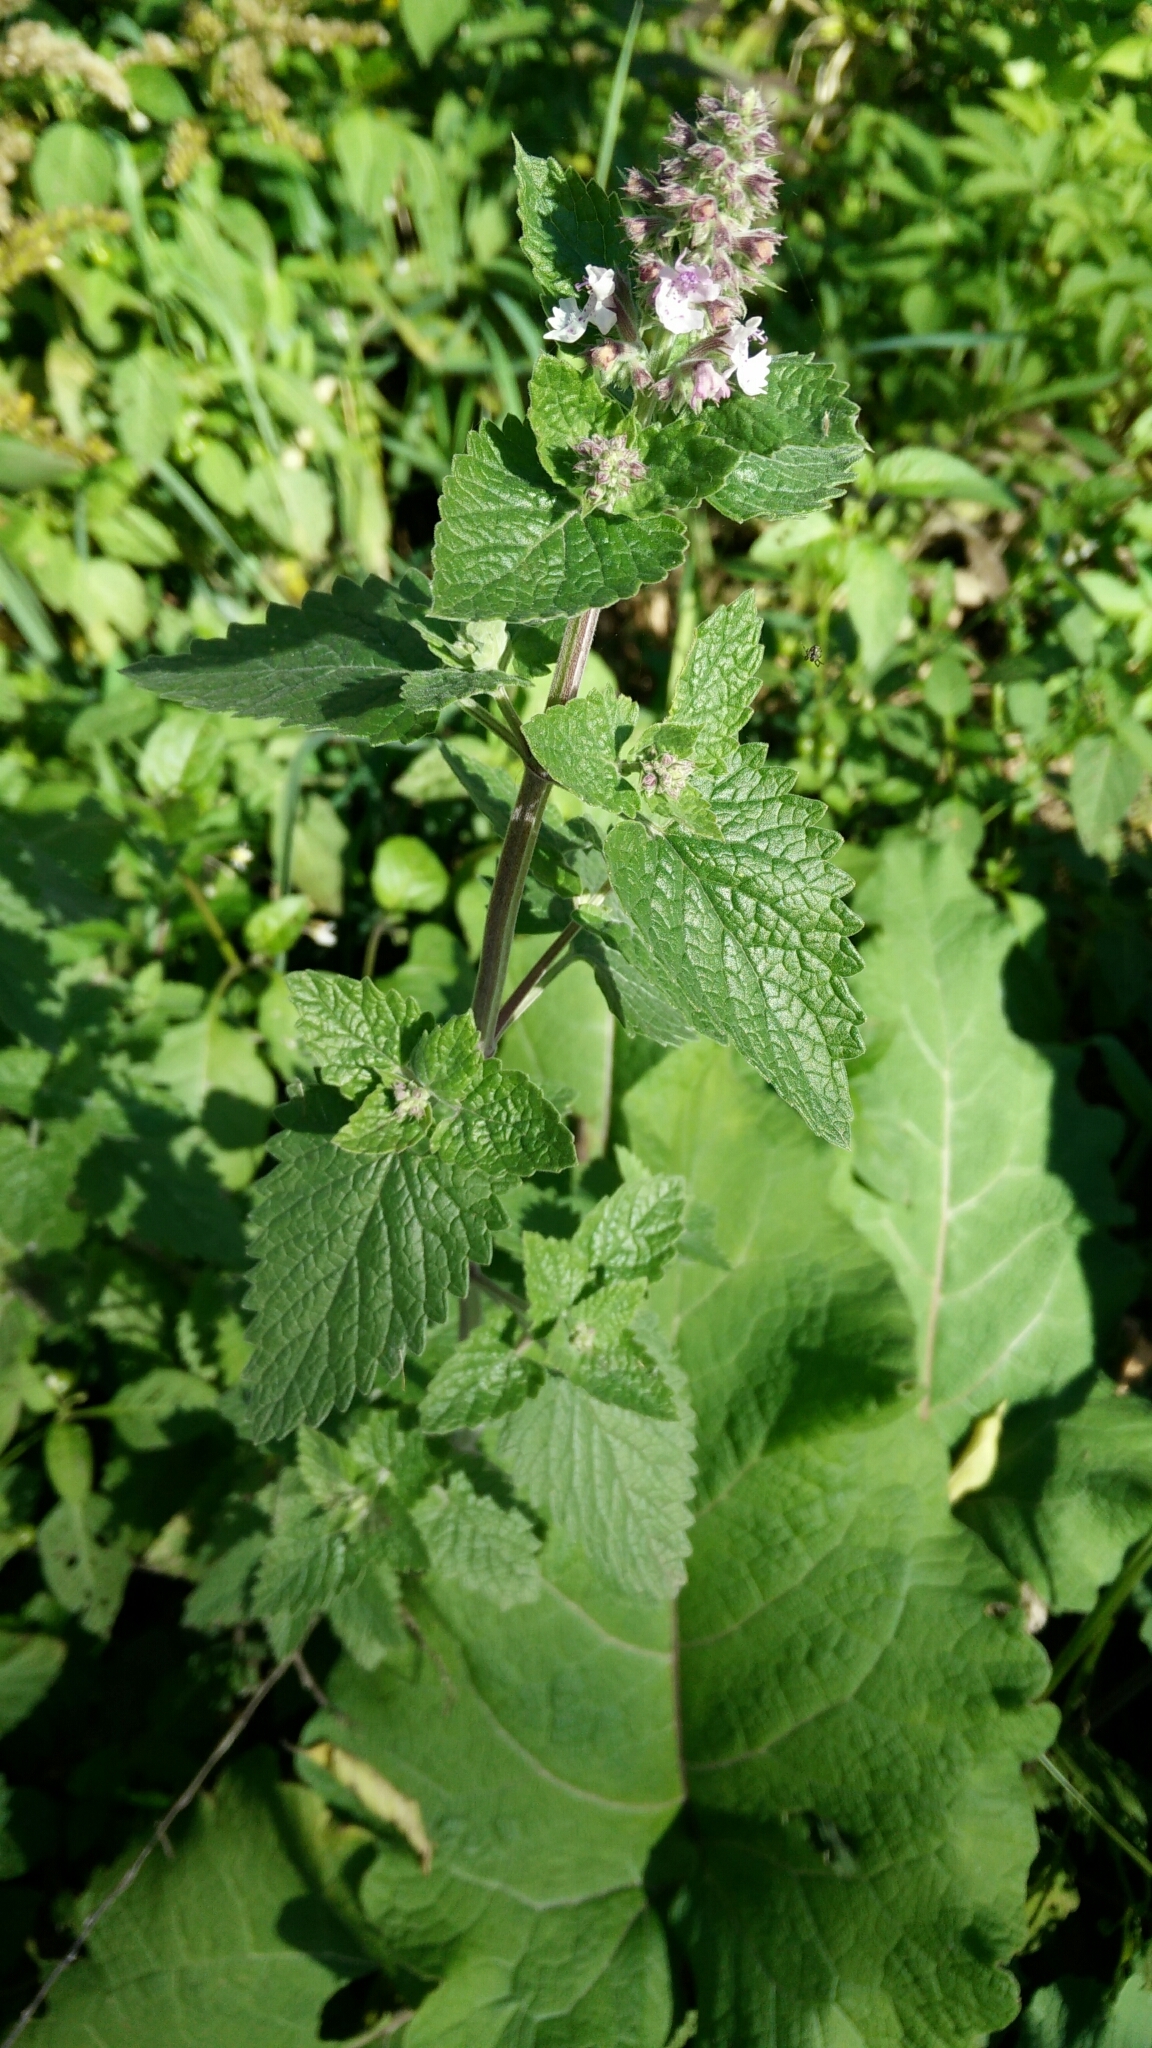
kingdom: Plantae
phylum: Tracheophyta
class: Magnoliopsida
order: Lamiales
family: Lamiaceae
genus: Nepeta
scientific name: Nepeta cataria
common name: Catnip
